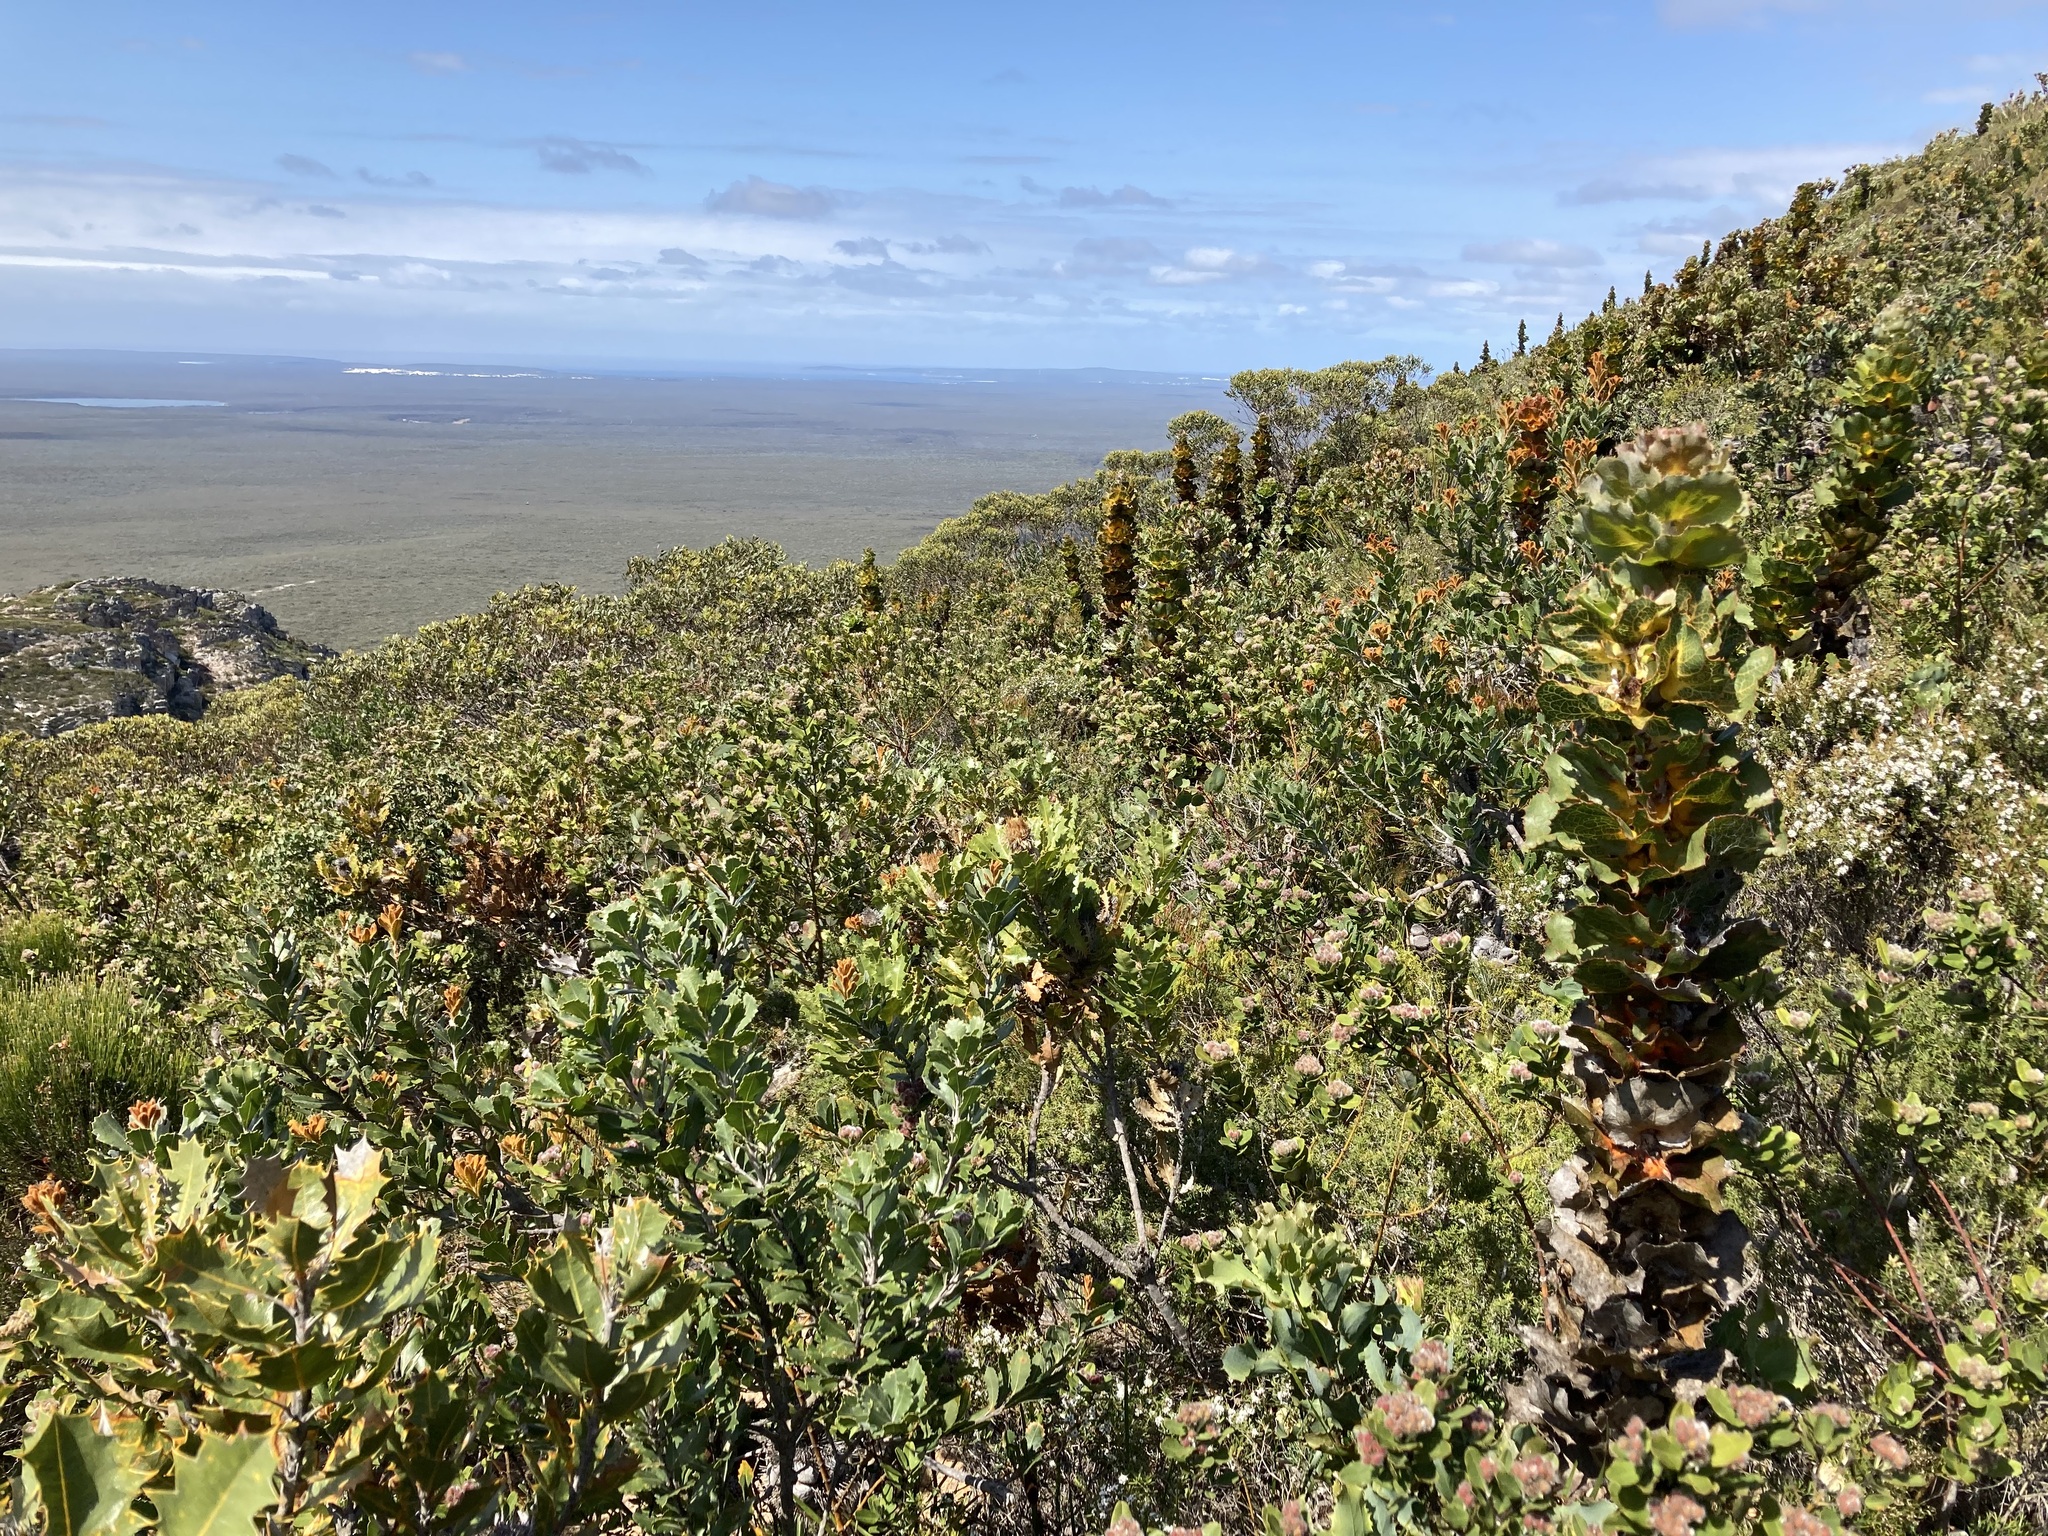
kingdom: Plantae
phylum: Tracheophyta
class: Magnoliopsida
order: Proteales
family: Proteaceae
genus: Hakea
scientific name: Hakea victoria
